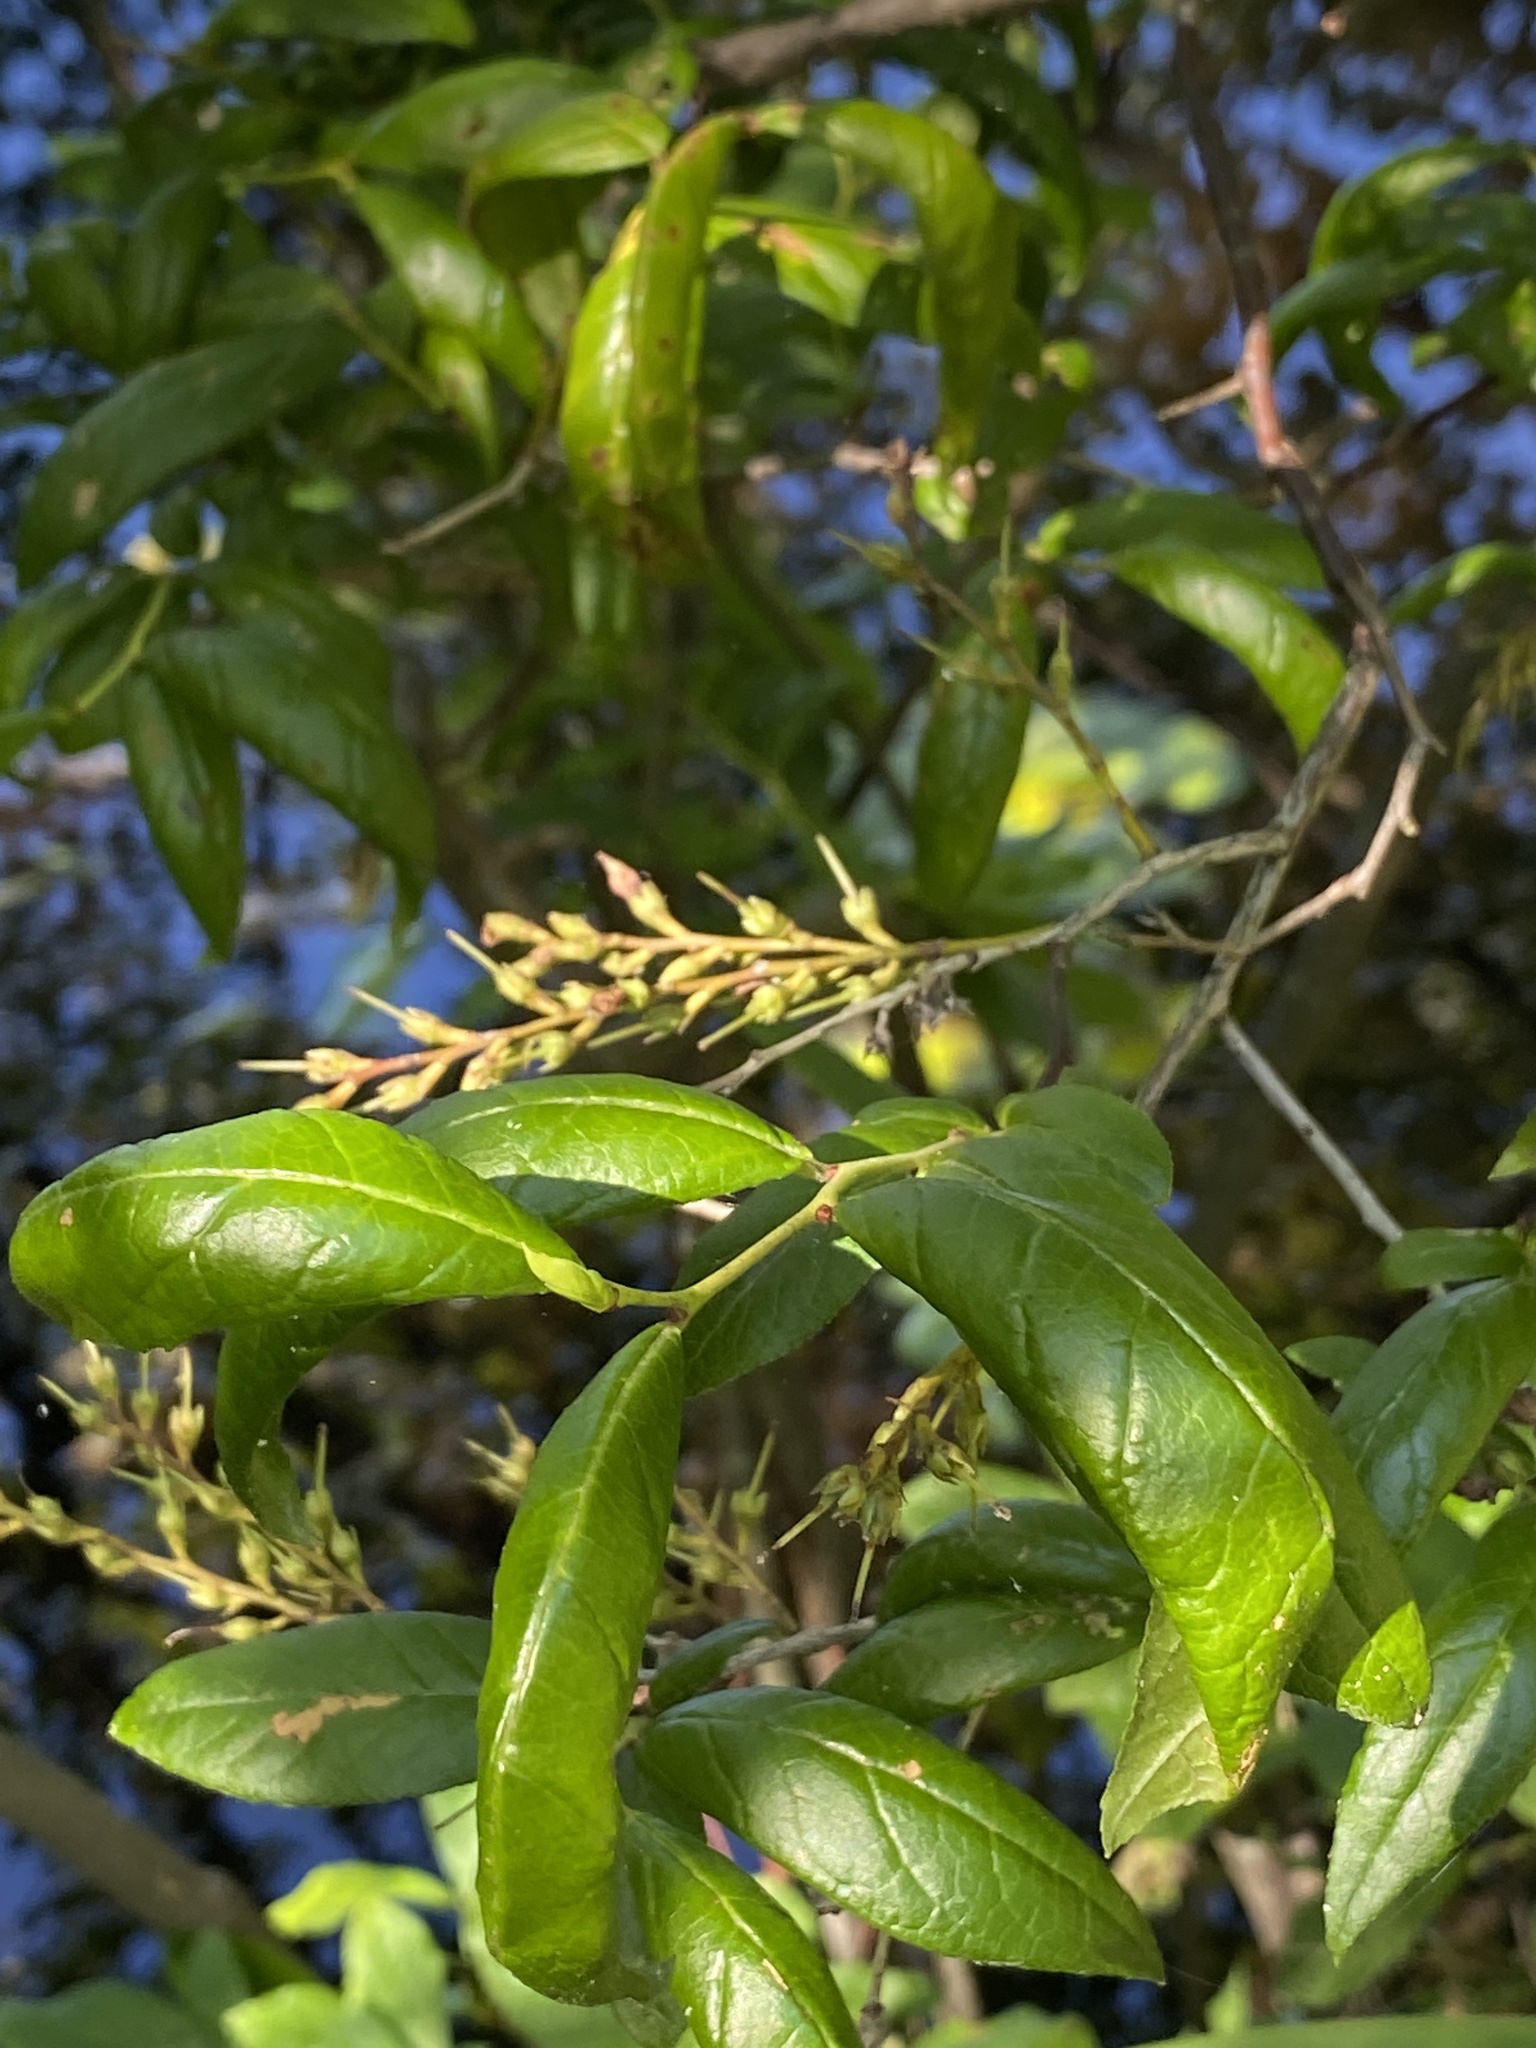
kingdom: Plantae
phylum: Tracheophyta
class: Magnoliopsida
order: Ericales
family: Ericaceae
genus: Eubotrys
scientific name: Eubotrys racemosa
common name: Fetterbush
